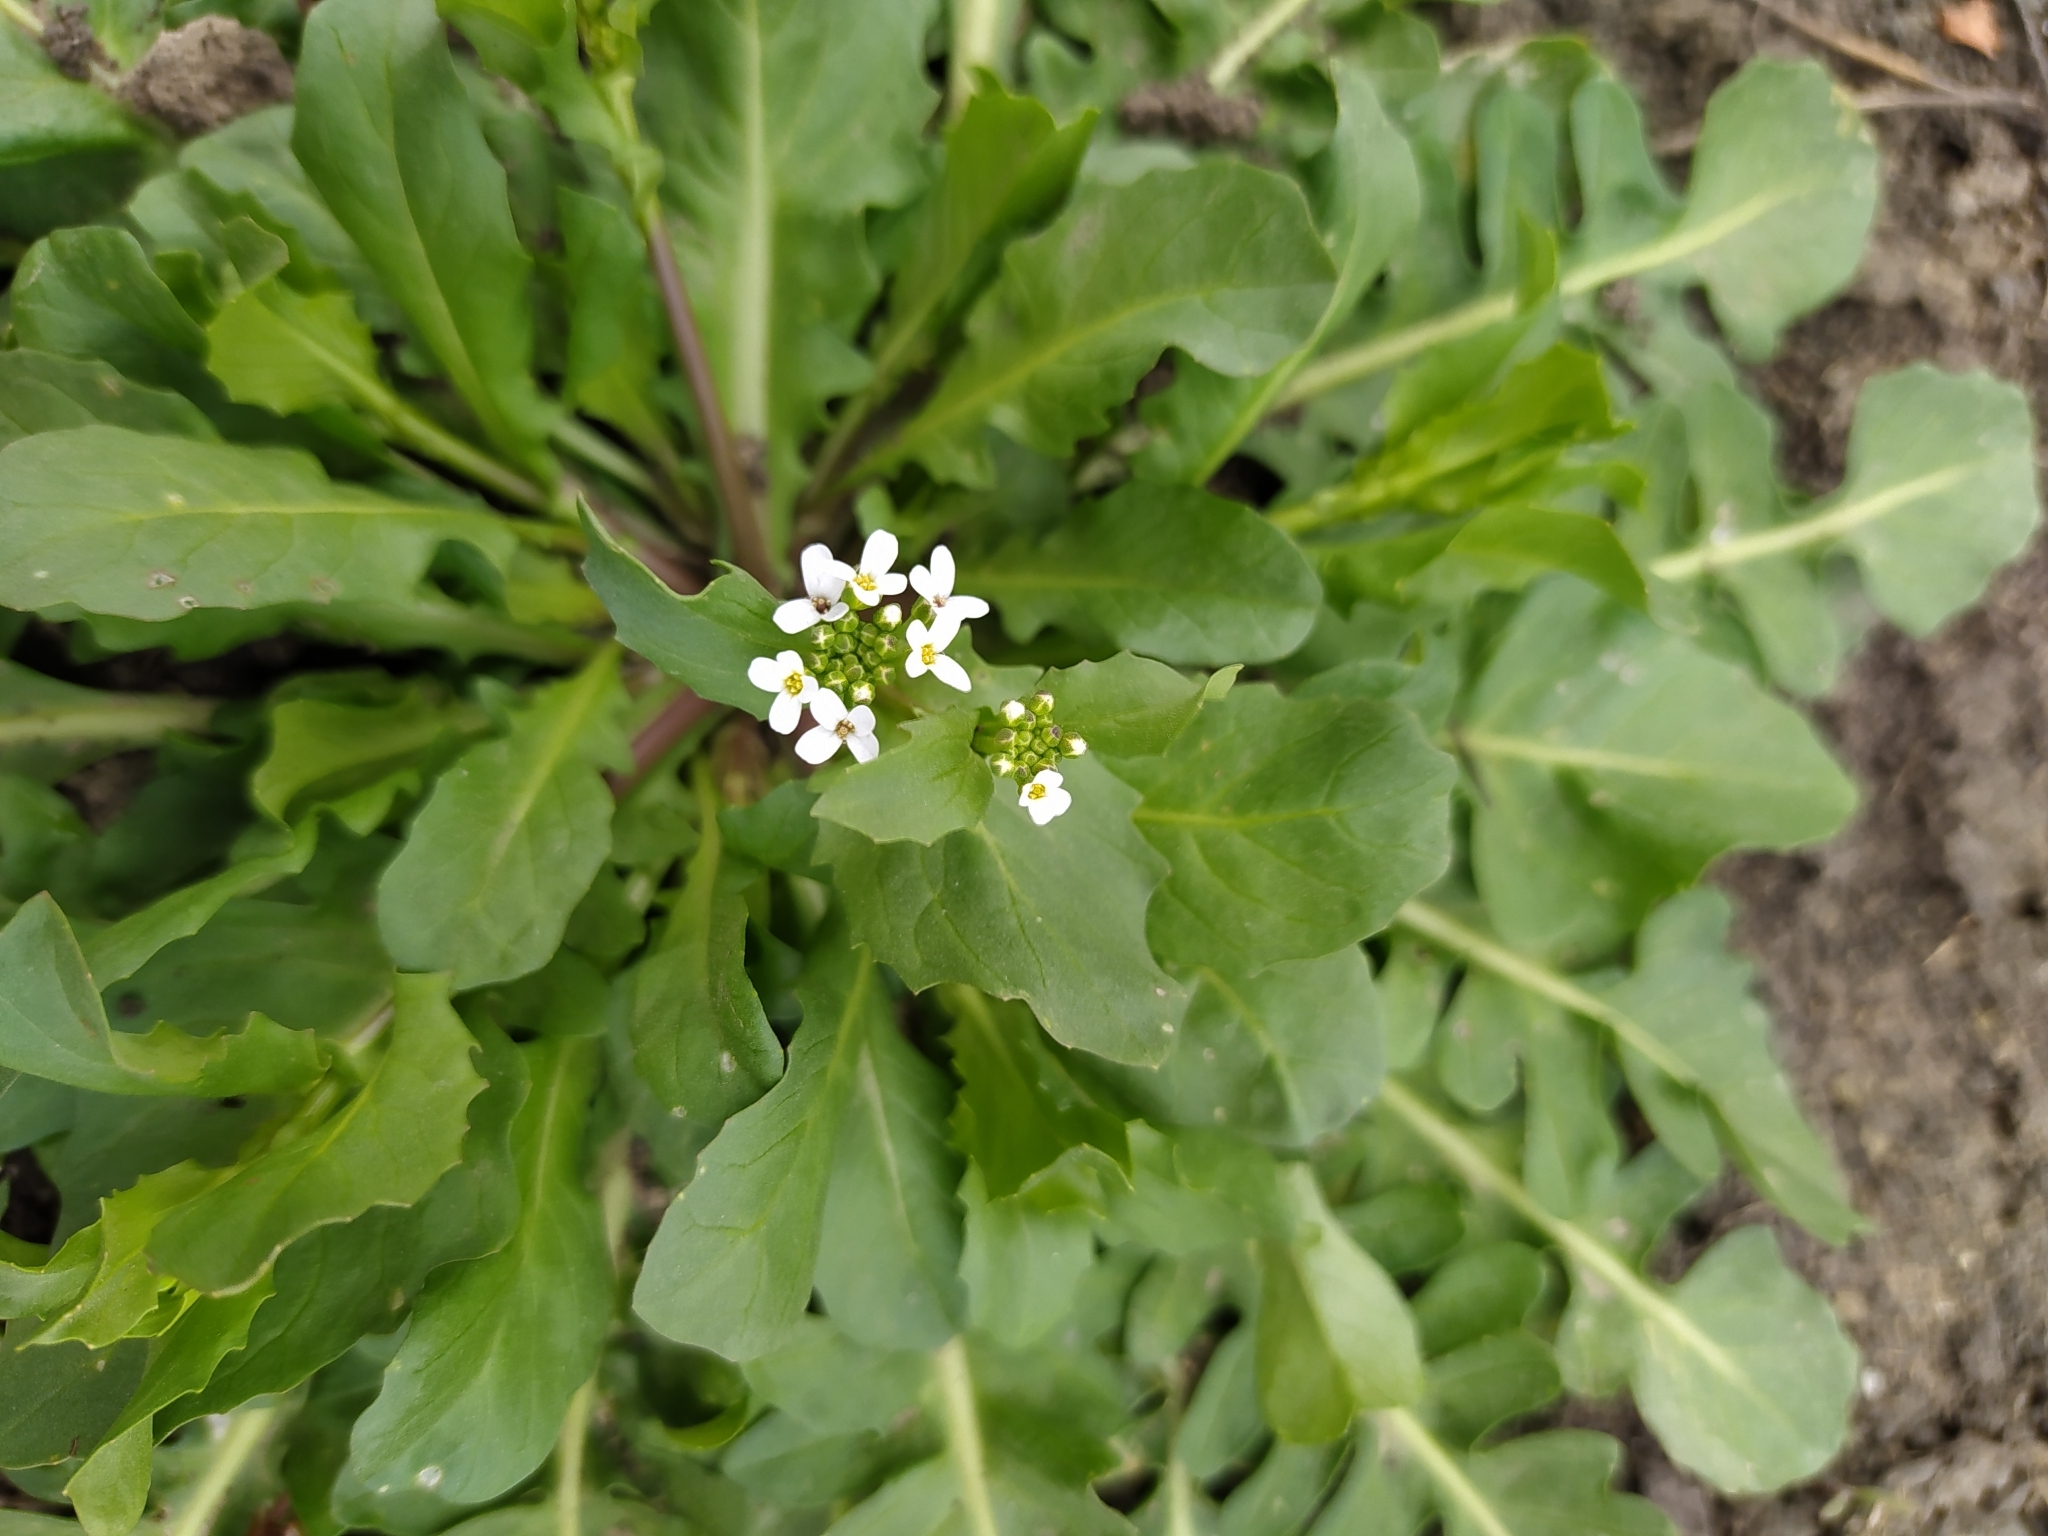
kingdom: Plantae
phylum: Tracheophyta
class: Magnoliopsida
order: Brassicales
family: Brassicaceae
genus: Thlaspi
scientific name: Thlaspi arvense
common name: Field pennycress
